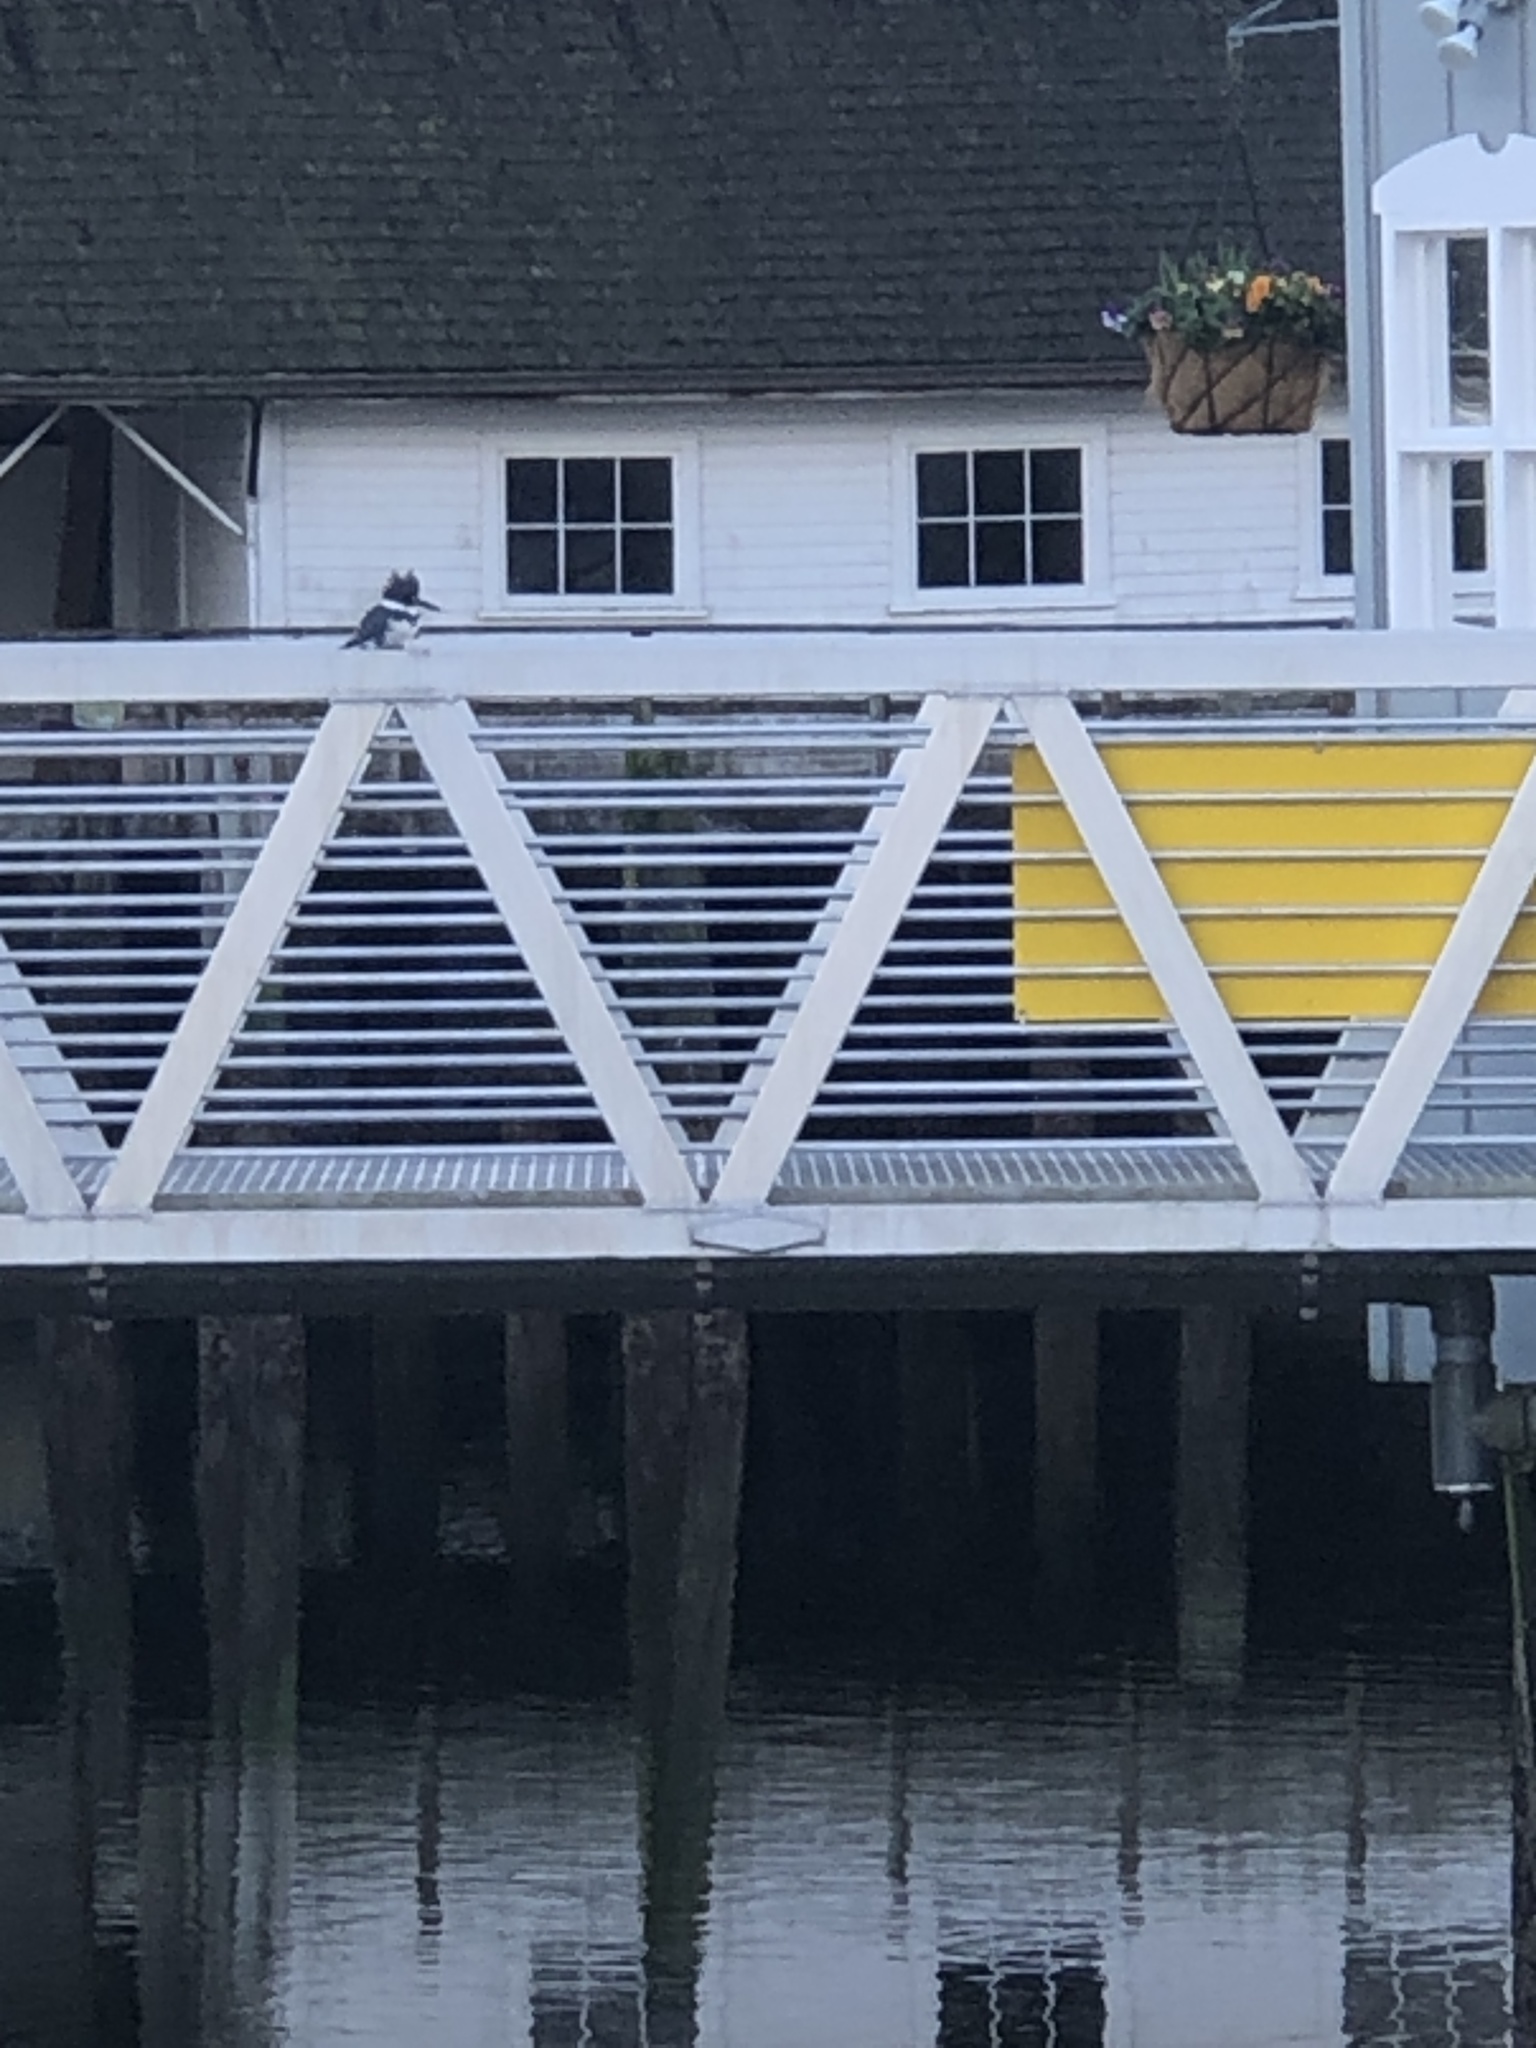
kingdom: Animalia
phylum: Chordata
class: Aves
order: Coraciiformes
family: Alcedinidae
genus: Megaceryle
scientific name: Megaceryle alcyon
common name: Belted kingfisher
